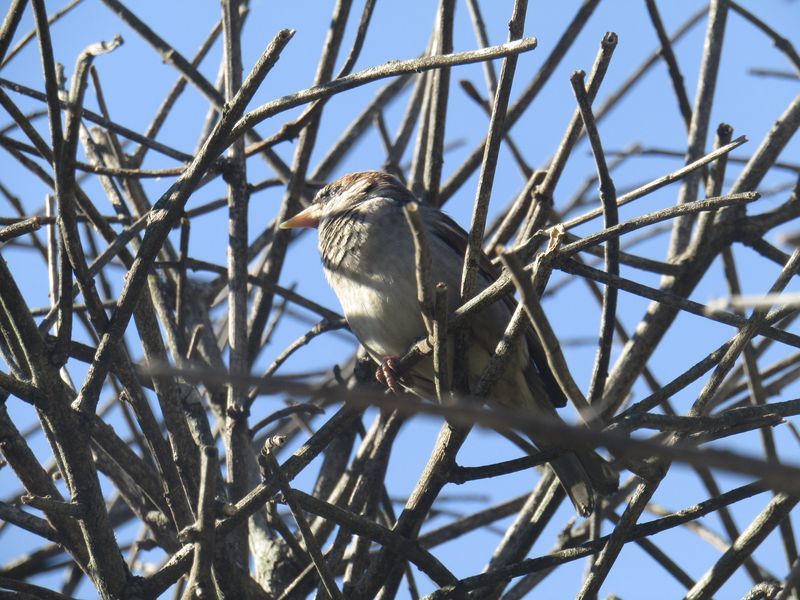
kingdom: Animalia
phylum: Chordata
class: Aves
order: Passeriformes
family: Passeridae
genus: Passer
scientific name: Passer domesticus
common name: House sparrow
